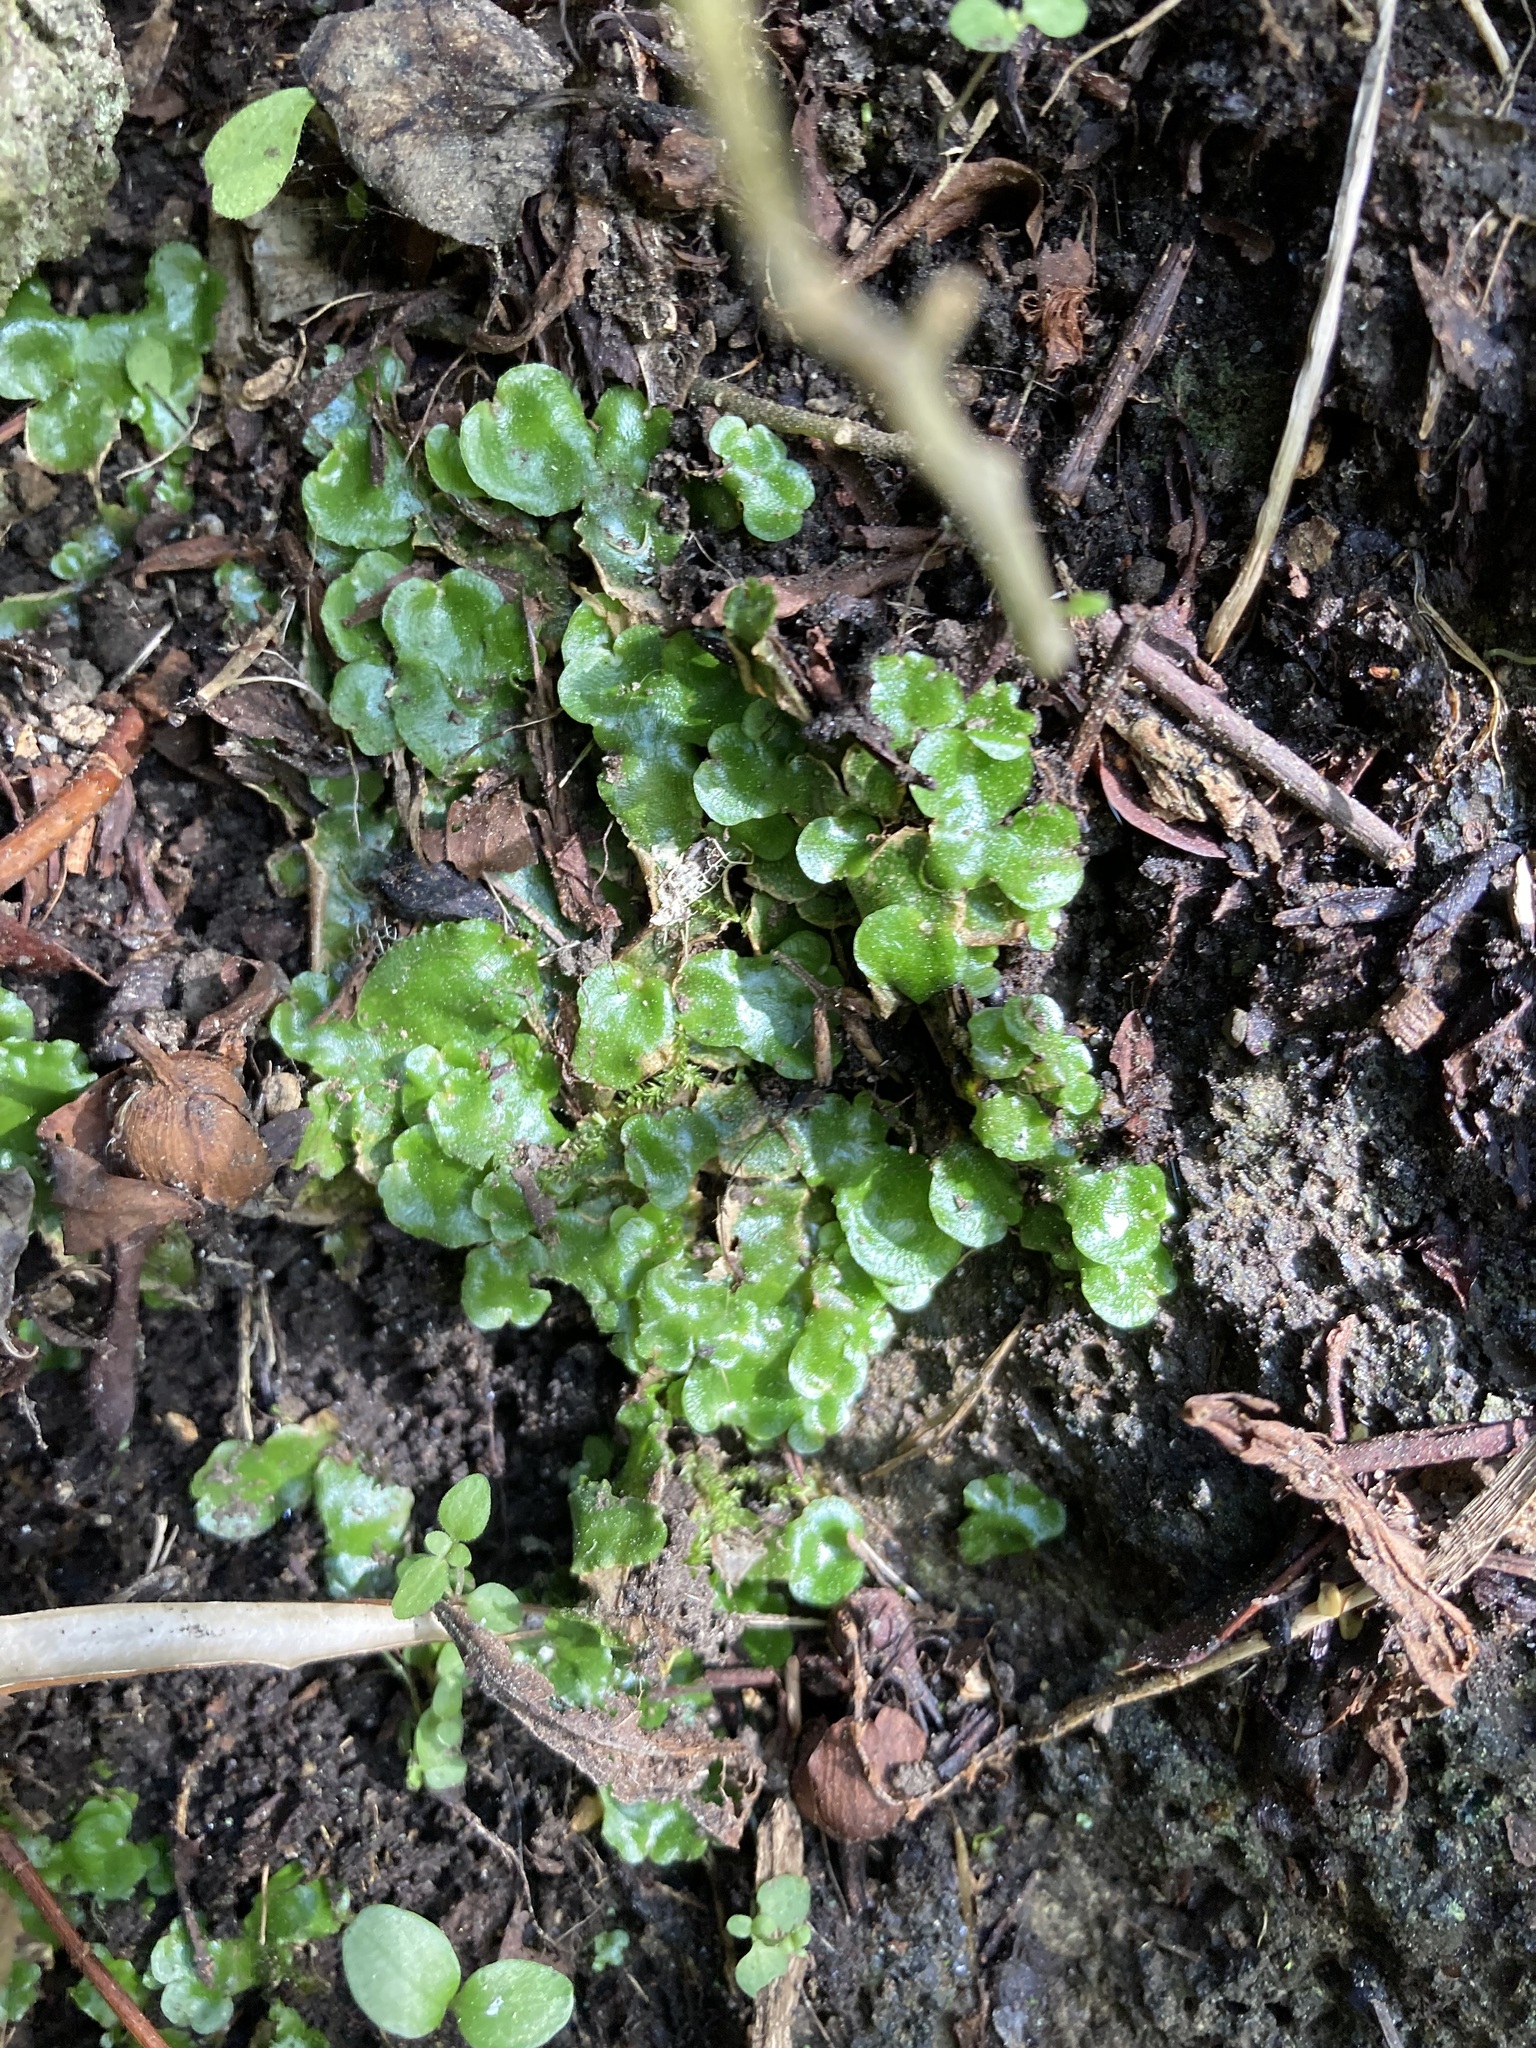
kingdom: Plantae
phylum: Marchantiophyta
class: Marchantiopsida
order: Lunulariales
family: Lunulariaceae
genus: Lunularia
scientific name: Lunularia cruciata
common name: Crescent-cup liverwort
